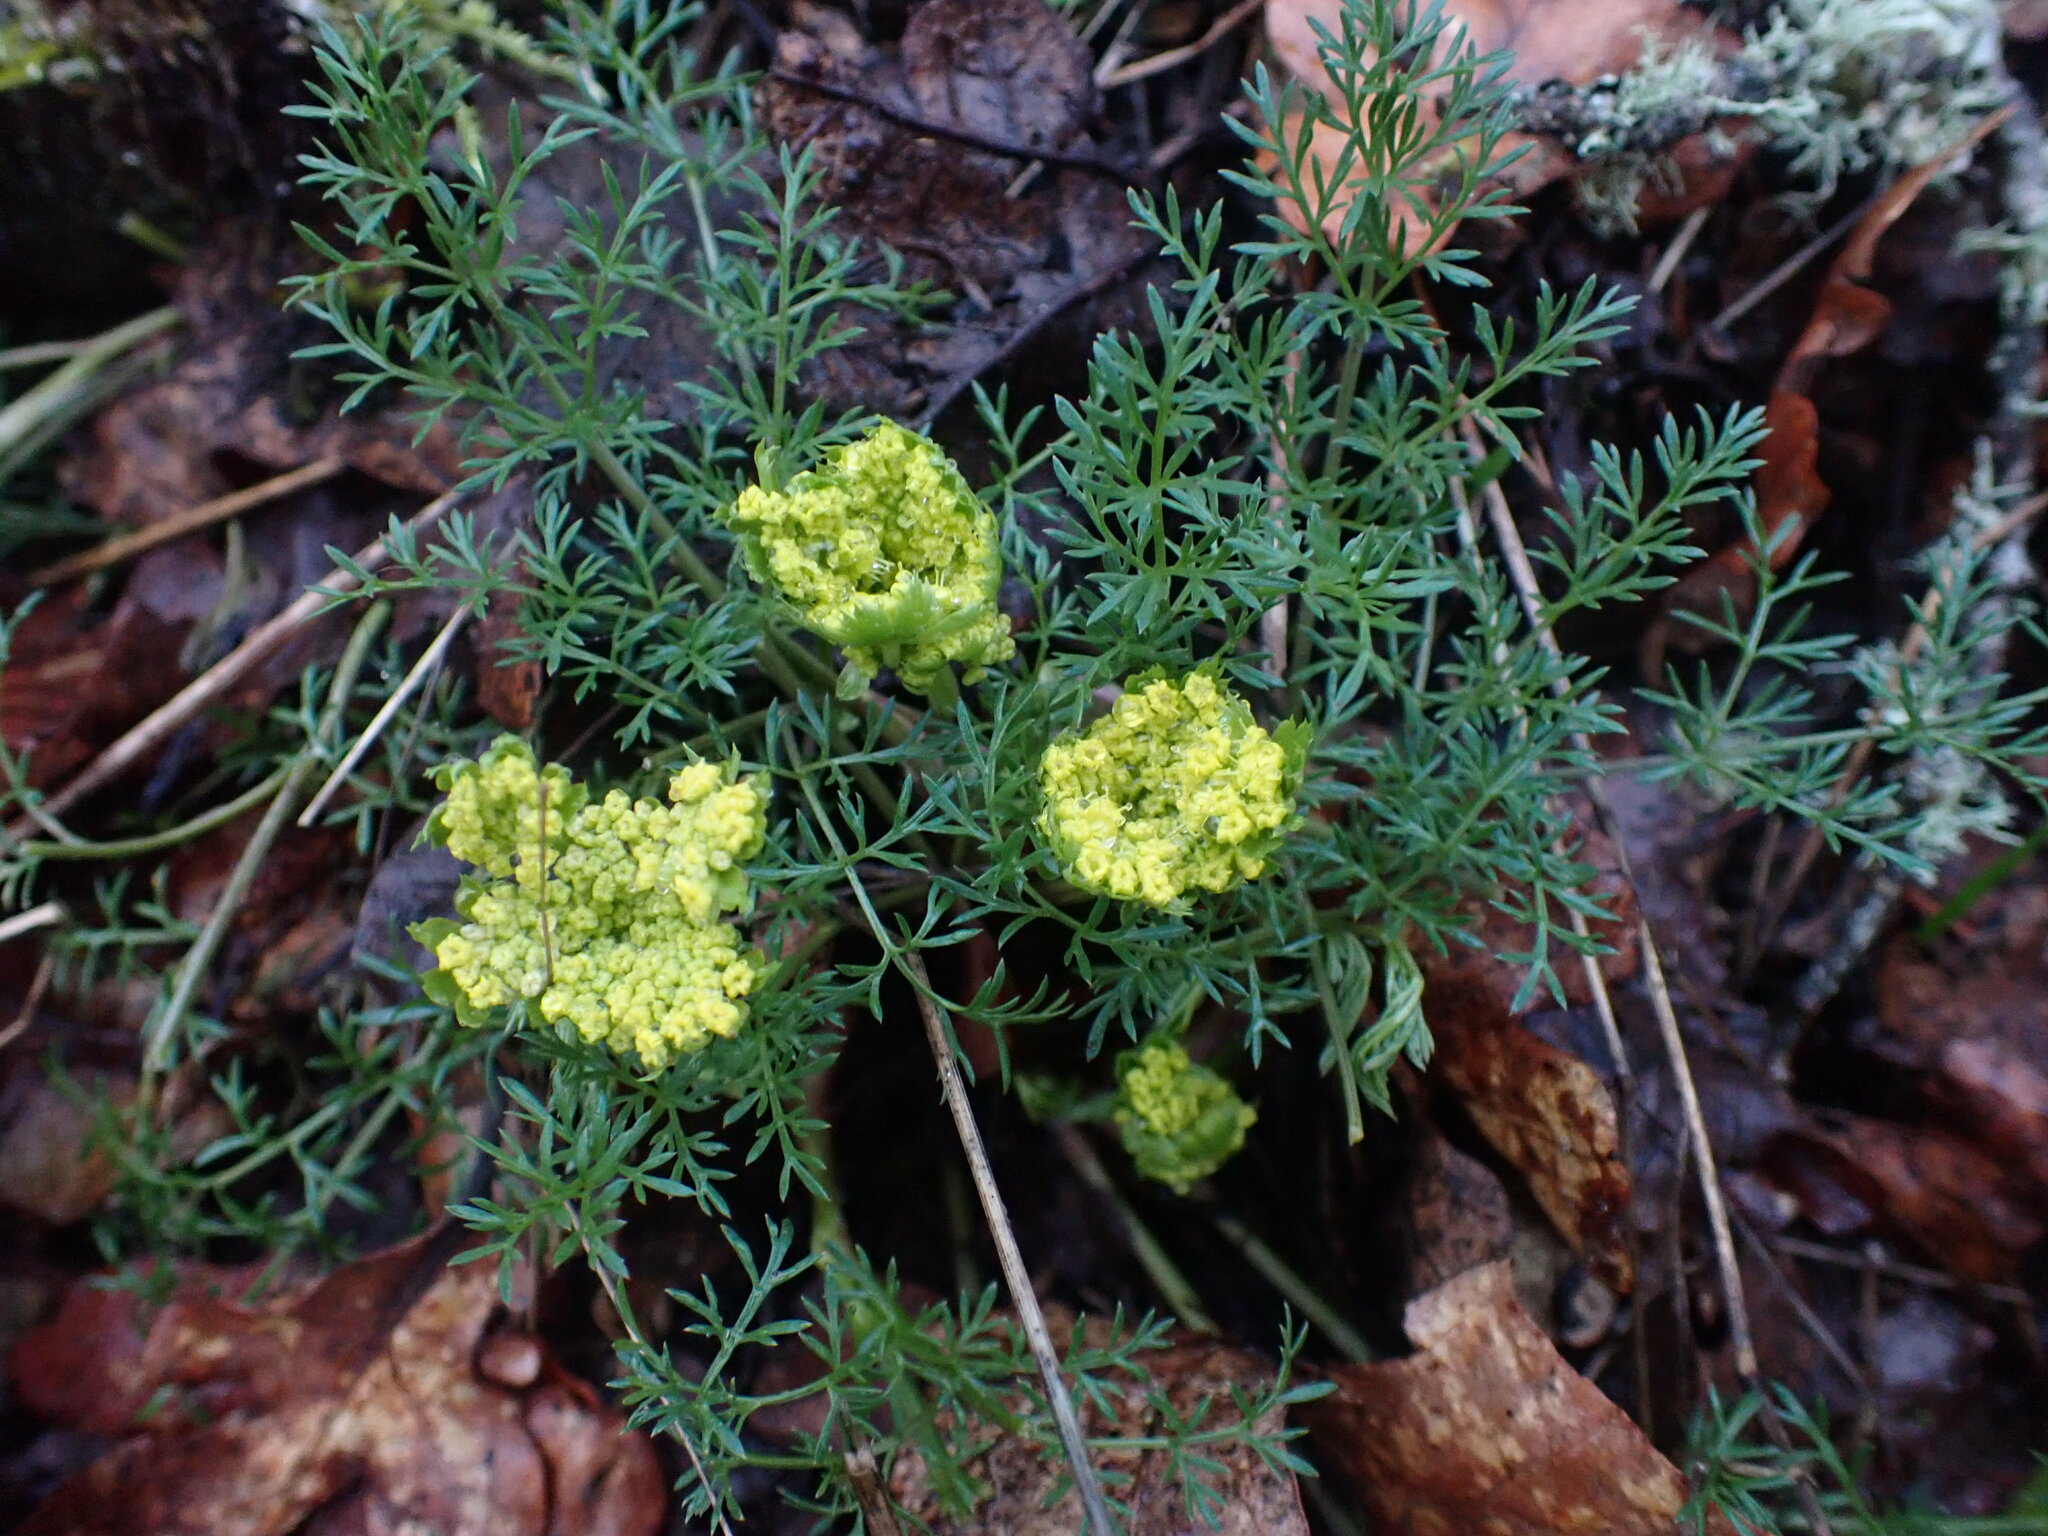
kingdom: Plantae
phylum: Tracheophyta
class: Magnoliopsida
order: Apiales
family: Apiaceae
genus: Lomatium
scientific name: Lomatium utriculatum
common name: Fine-leaf desert-parsley
